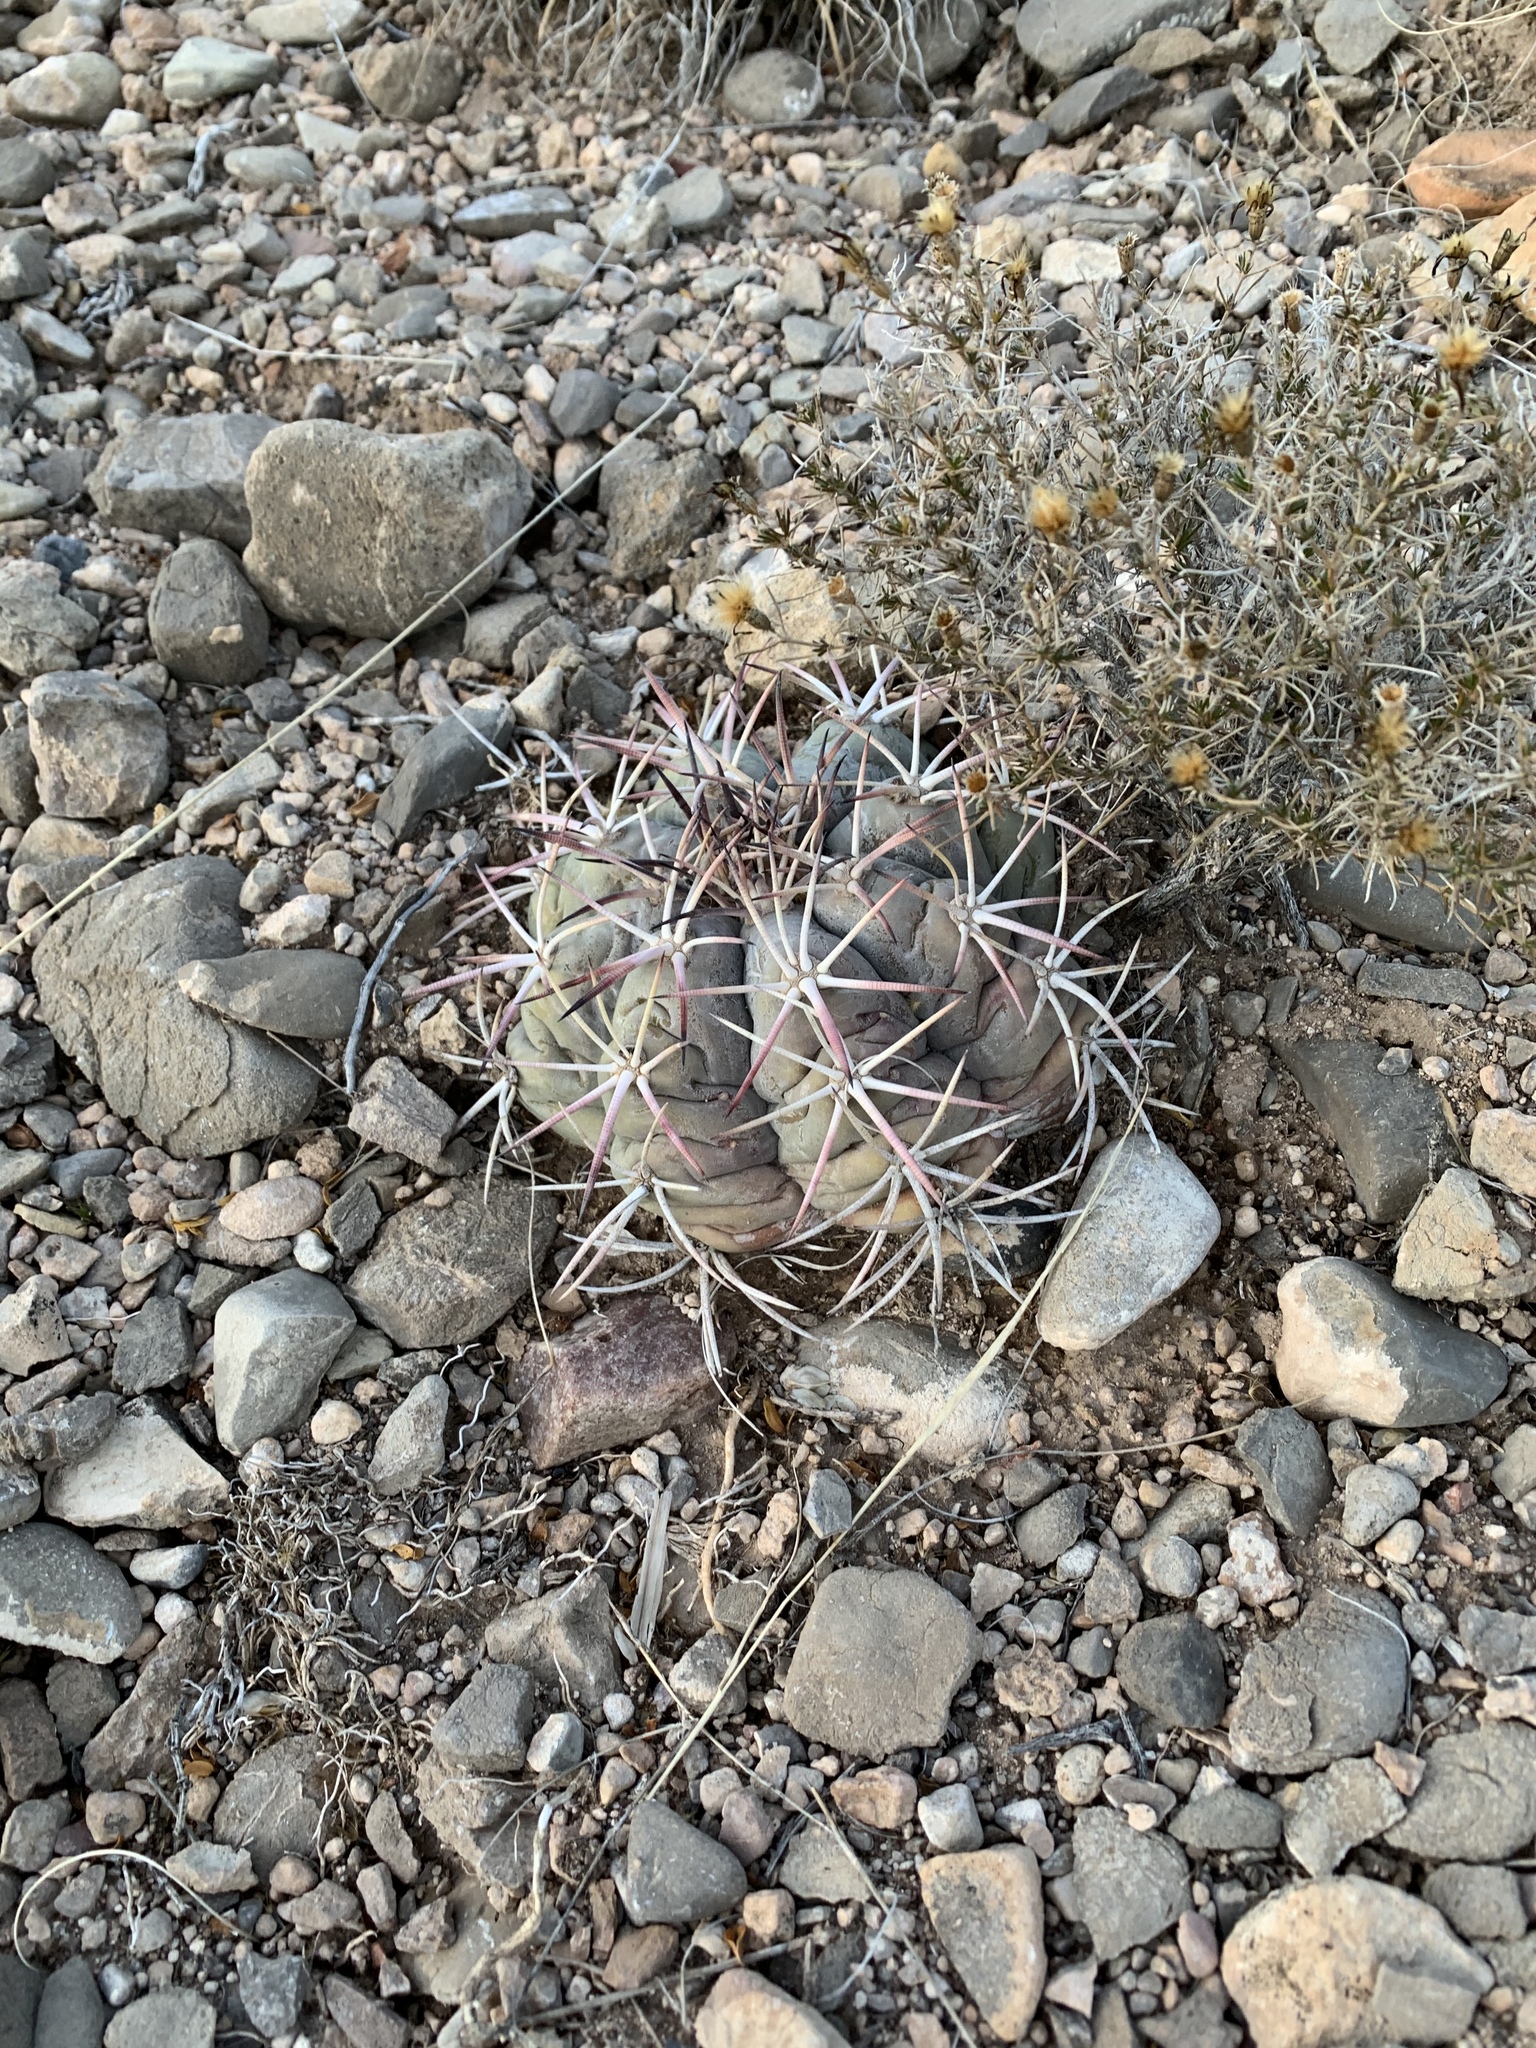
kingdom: Plantae
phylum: Tracheophyta
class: Magnoliopsida
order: Caryophyllales
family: Cactaceae
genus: Echinocactus
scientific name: Echinocactus horizonthalonius
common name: Devilshead
